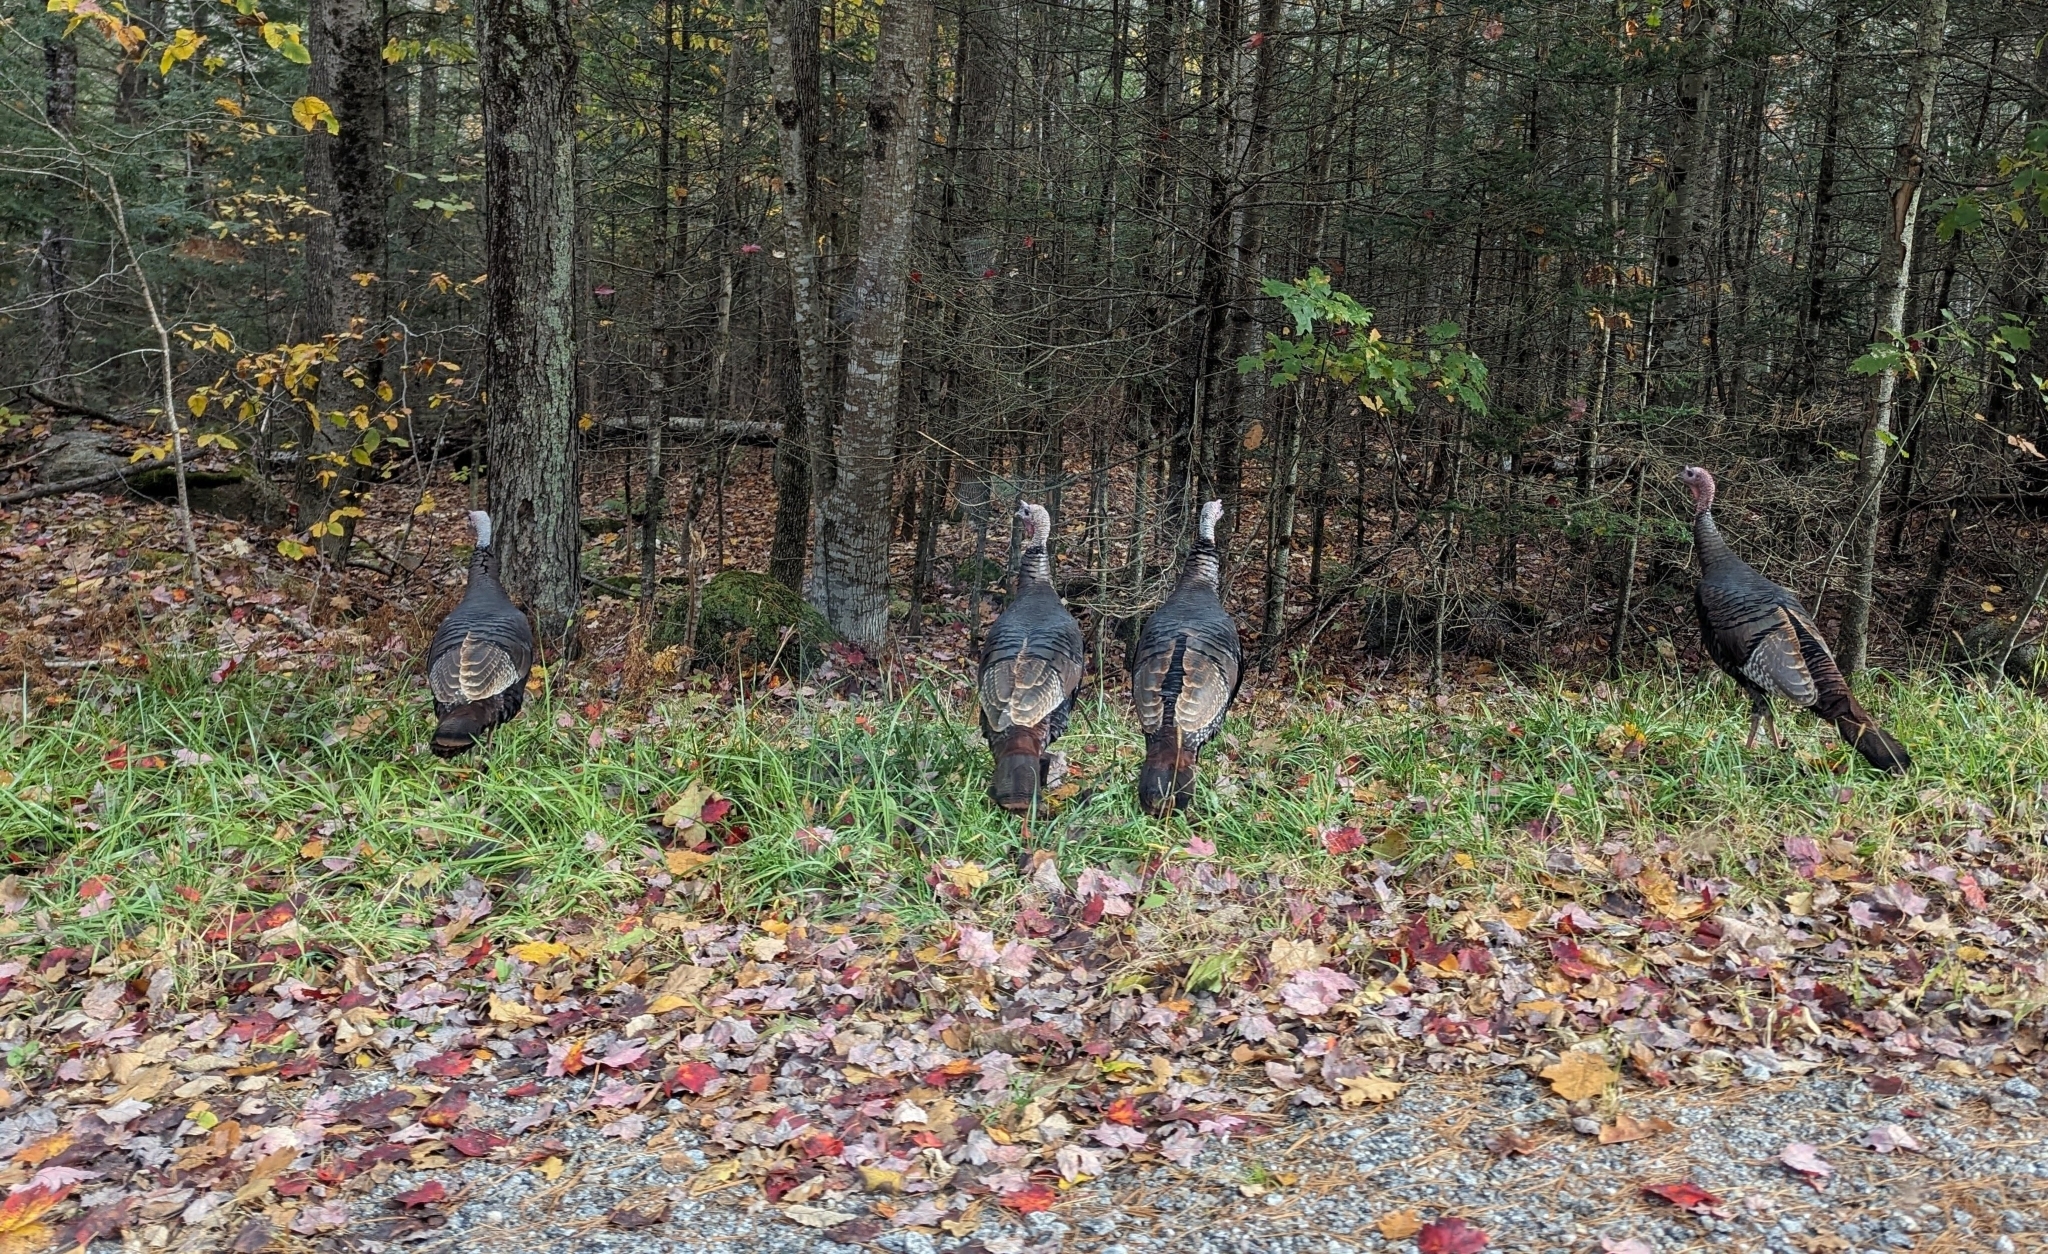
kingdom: Animalia
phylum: Chordata
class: Aves
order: Galliformes
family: Phasianidae
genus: Meleagris
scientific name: Meleagris gallopavo
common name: Wild turkey
